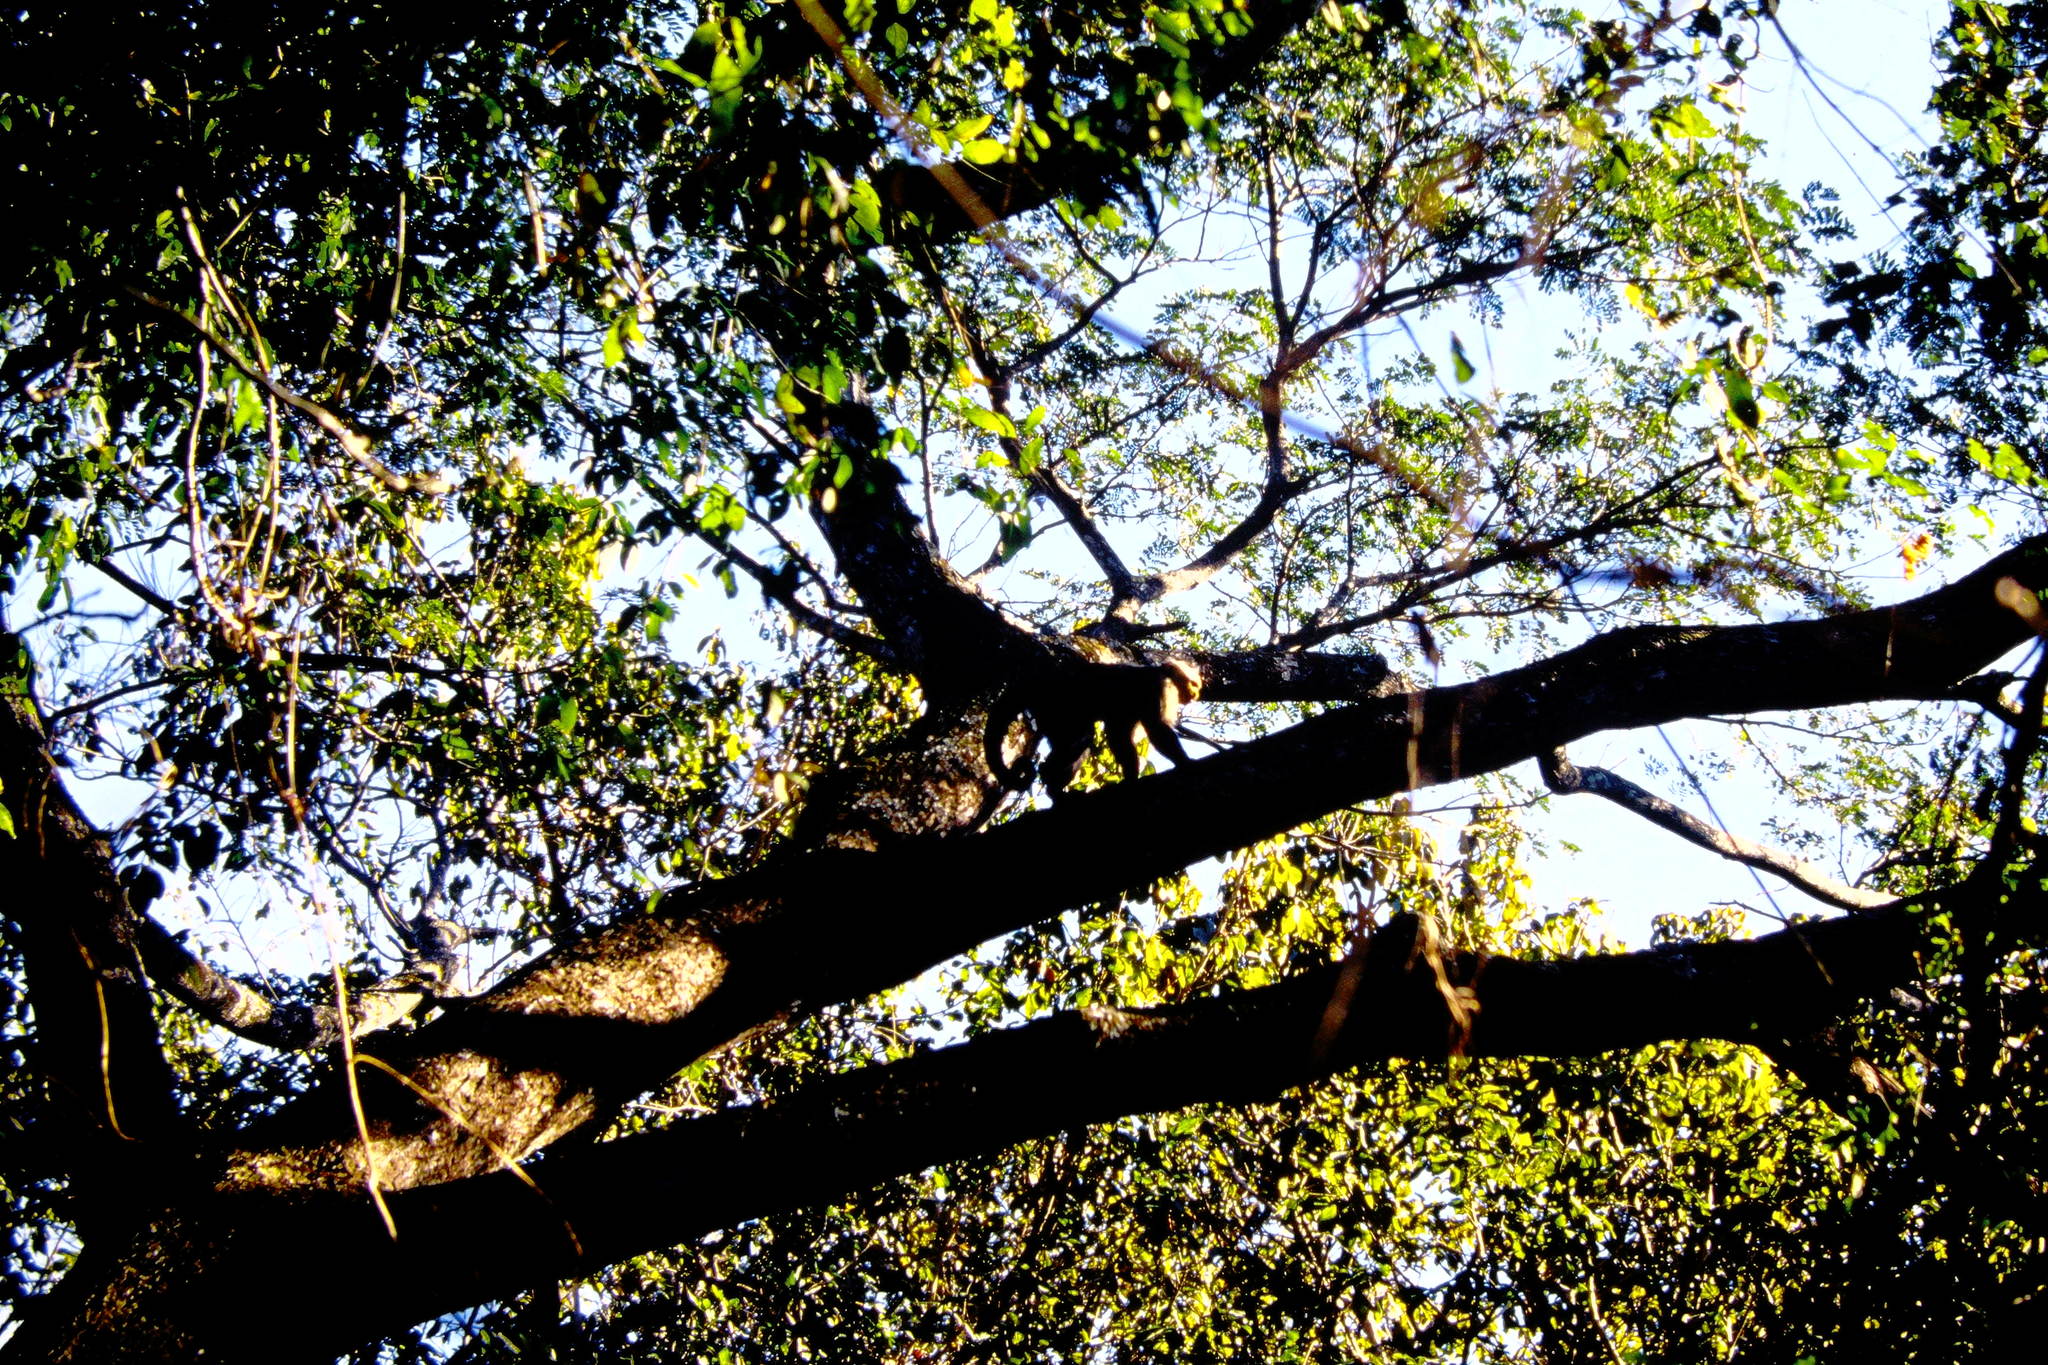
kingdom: Animalia
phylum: Chordata
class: Mammalia
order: Primates
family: Cebidae
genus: Cebus
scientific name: Cebus imitator
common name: Panamanian white-faced capuchin
